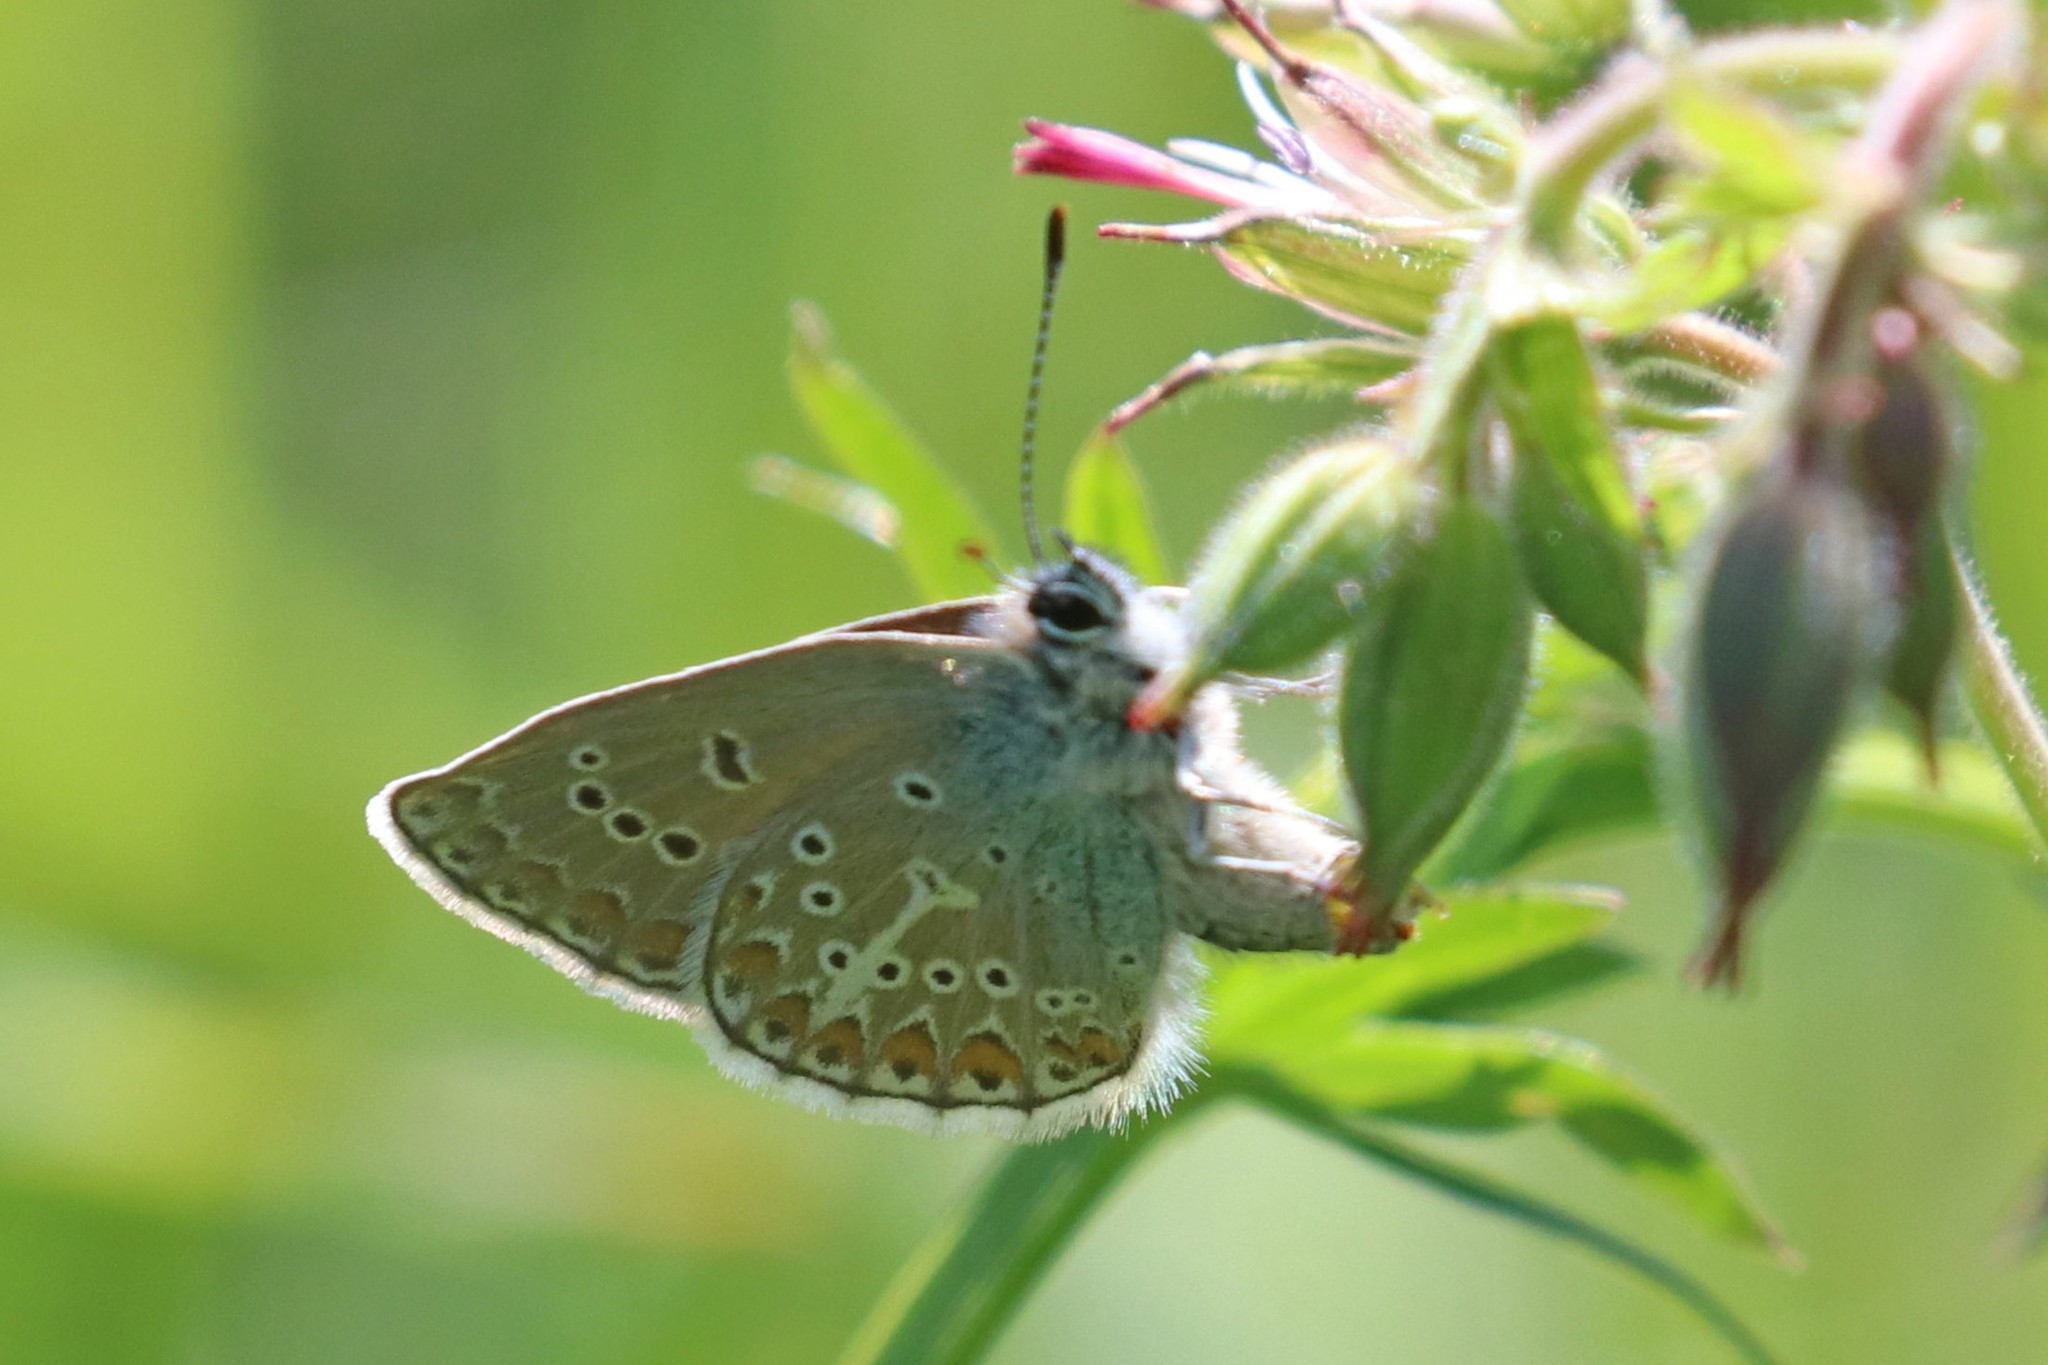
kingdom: Animalia
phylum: Arthropoda
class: Insecta
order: Lepidoptera
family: Lycaenidae
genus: Eumedonia
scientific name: Eumedonia eumedon
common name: Geranium argus
